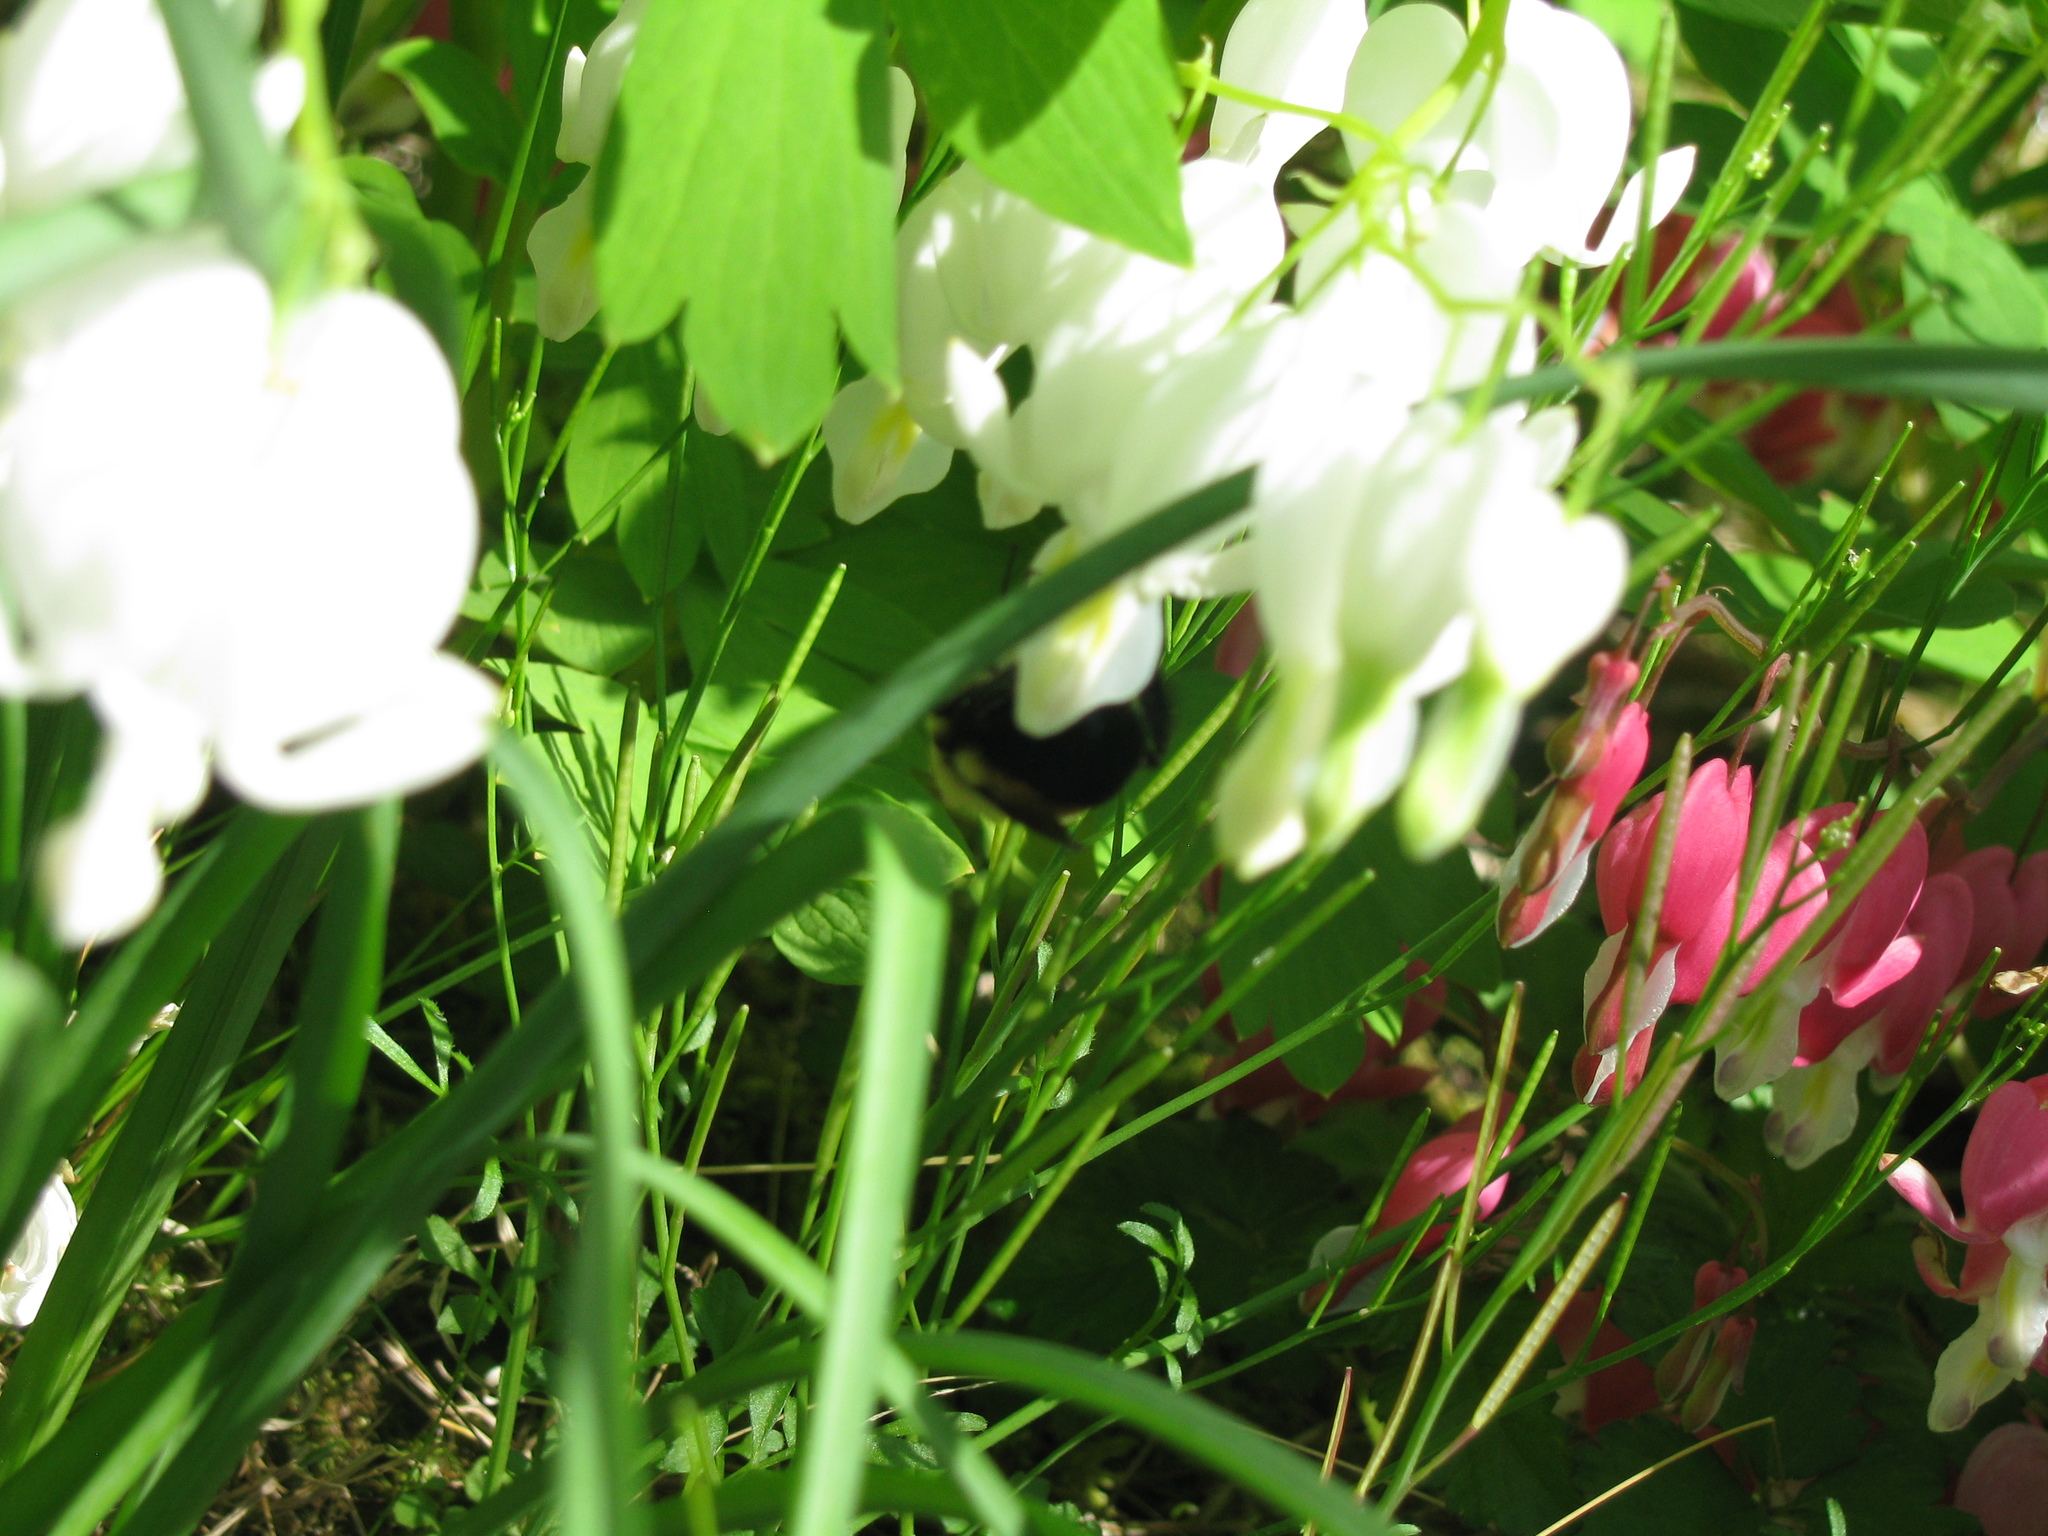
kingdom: Animalia
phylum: Arthropoda
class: Insecta
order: Hymenoptera
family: Apidae
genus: Bombus
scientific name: Bombus
